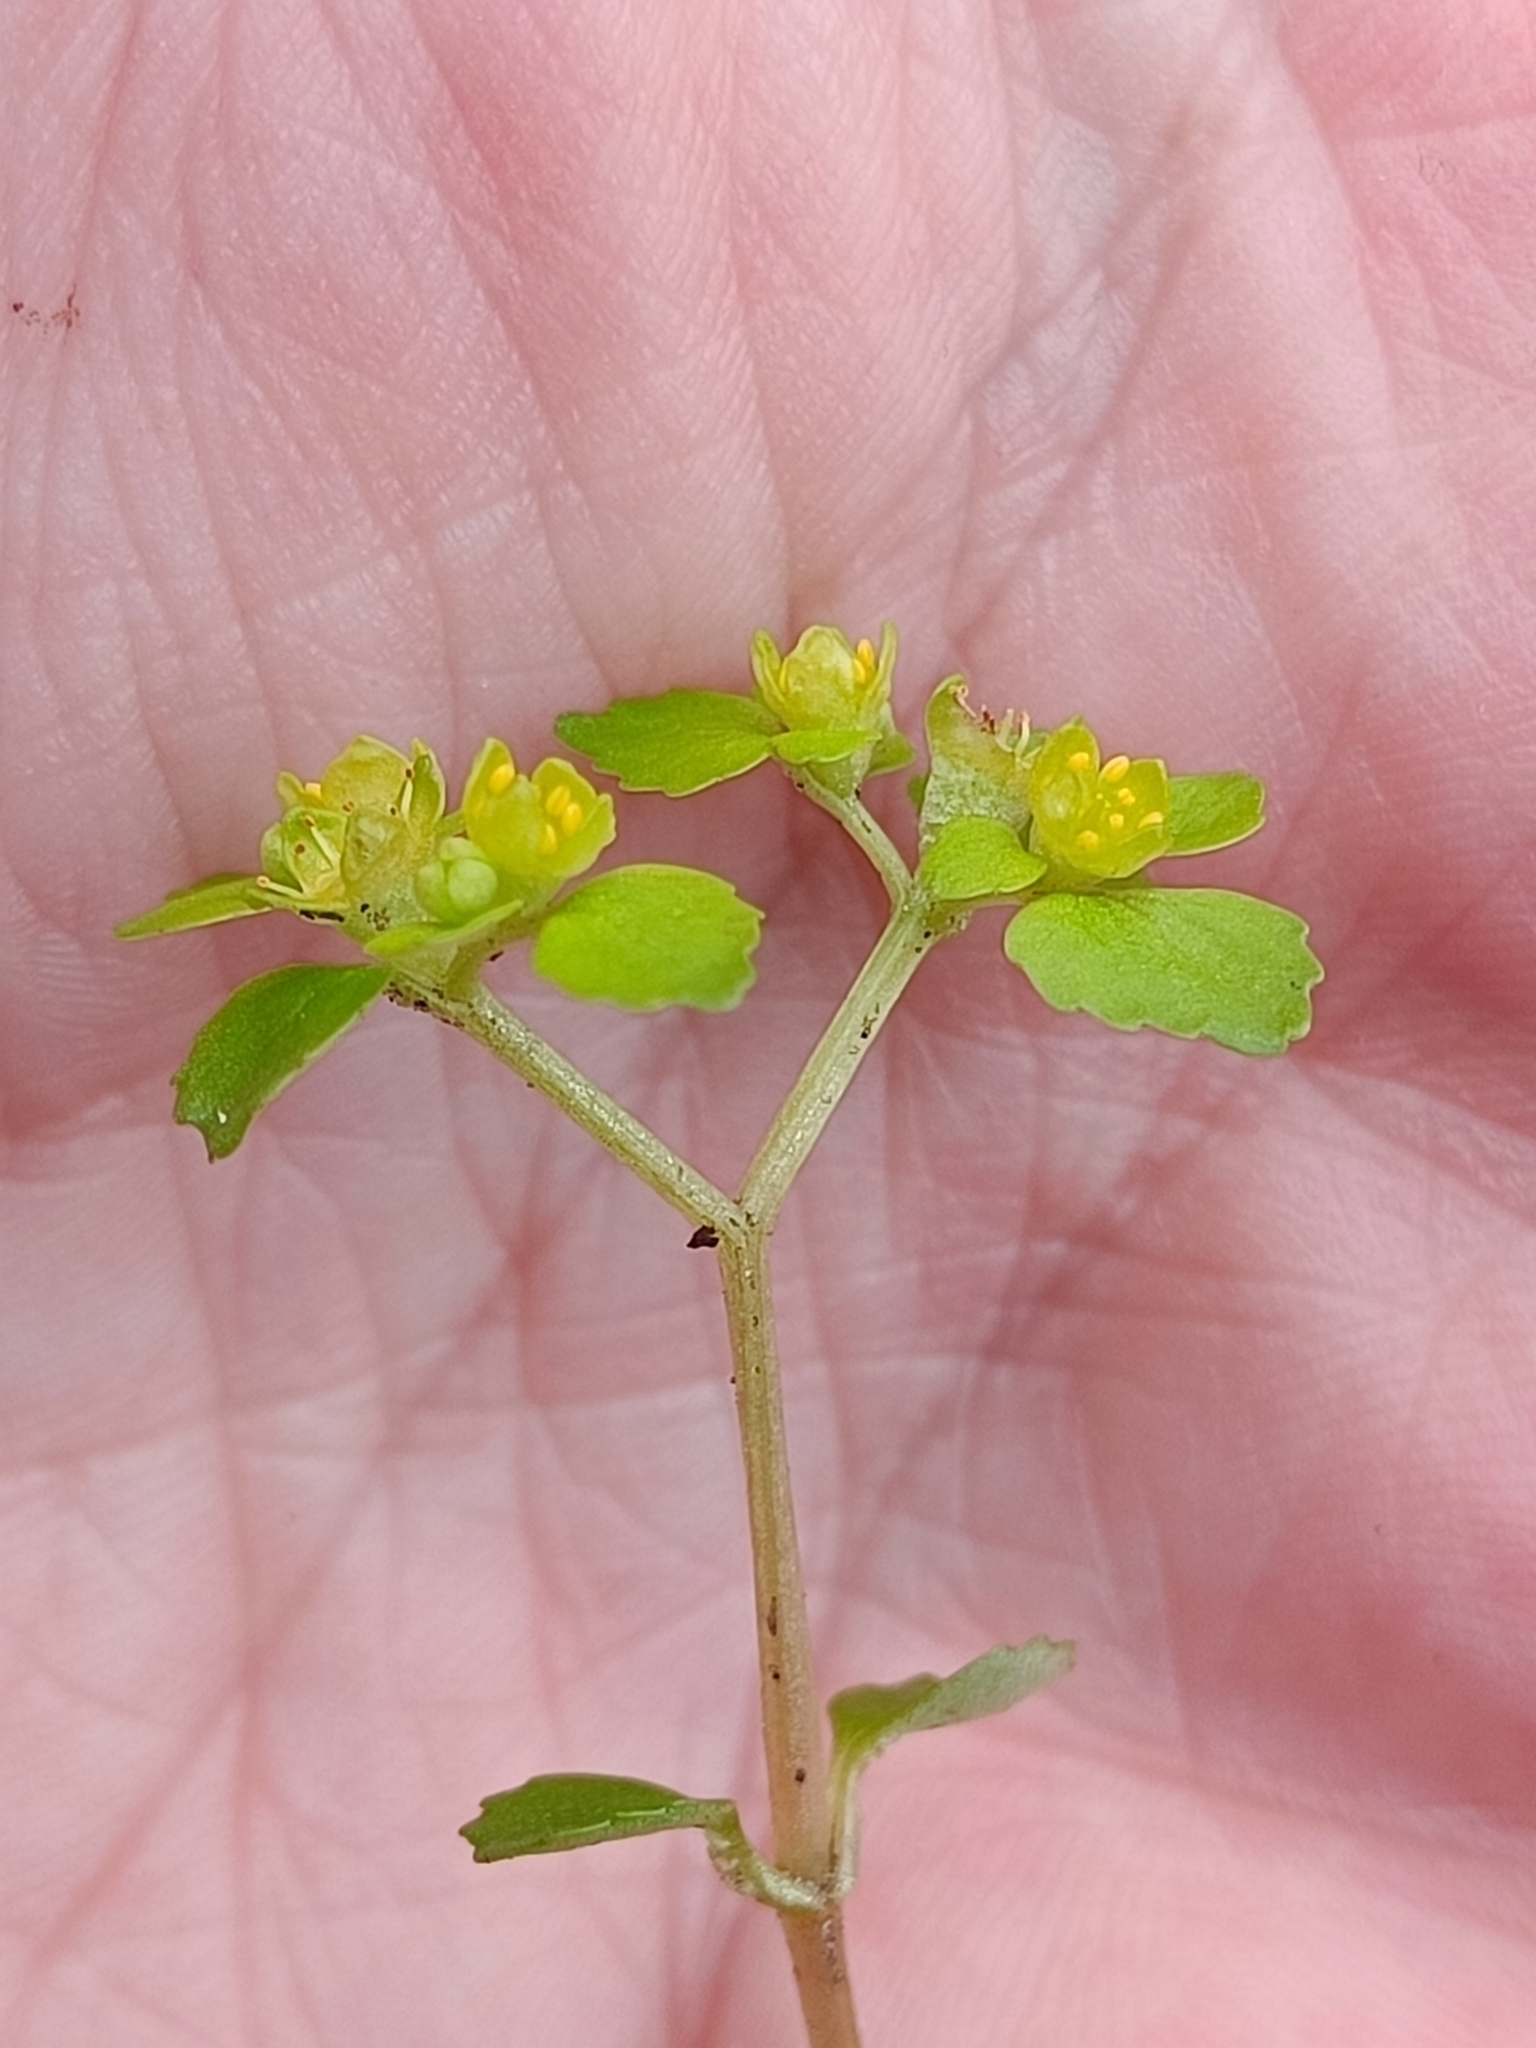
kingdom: Plantae
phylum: Tracheophyta
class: Magnoliopsida
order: Saxifragales
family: Saxifragaceae
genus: Chrysosplenium
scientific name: Chrysosplenium oppositifolium
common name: Opposite-leaved golden-saxifrage
